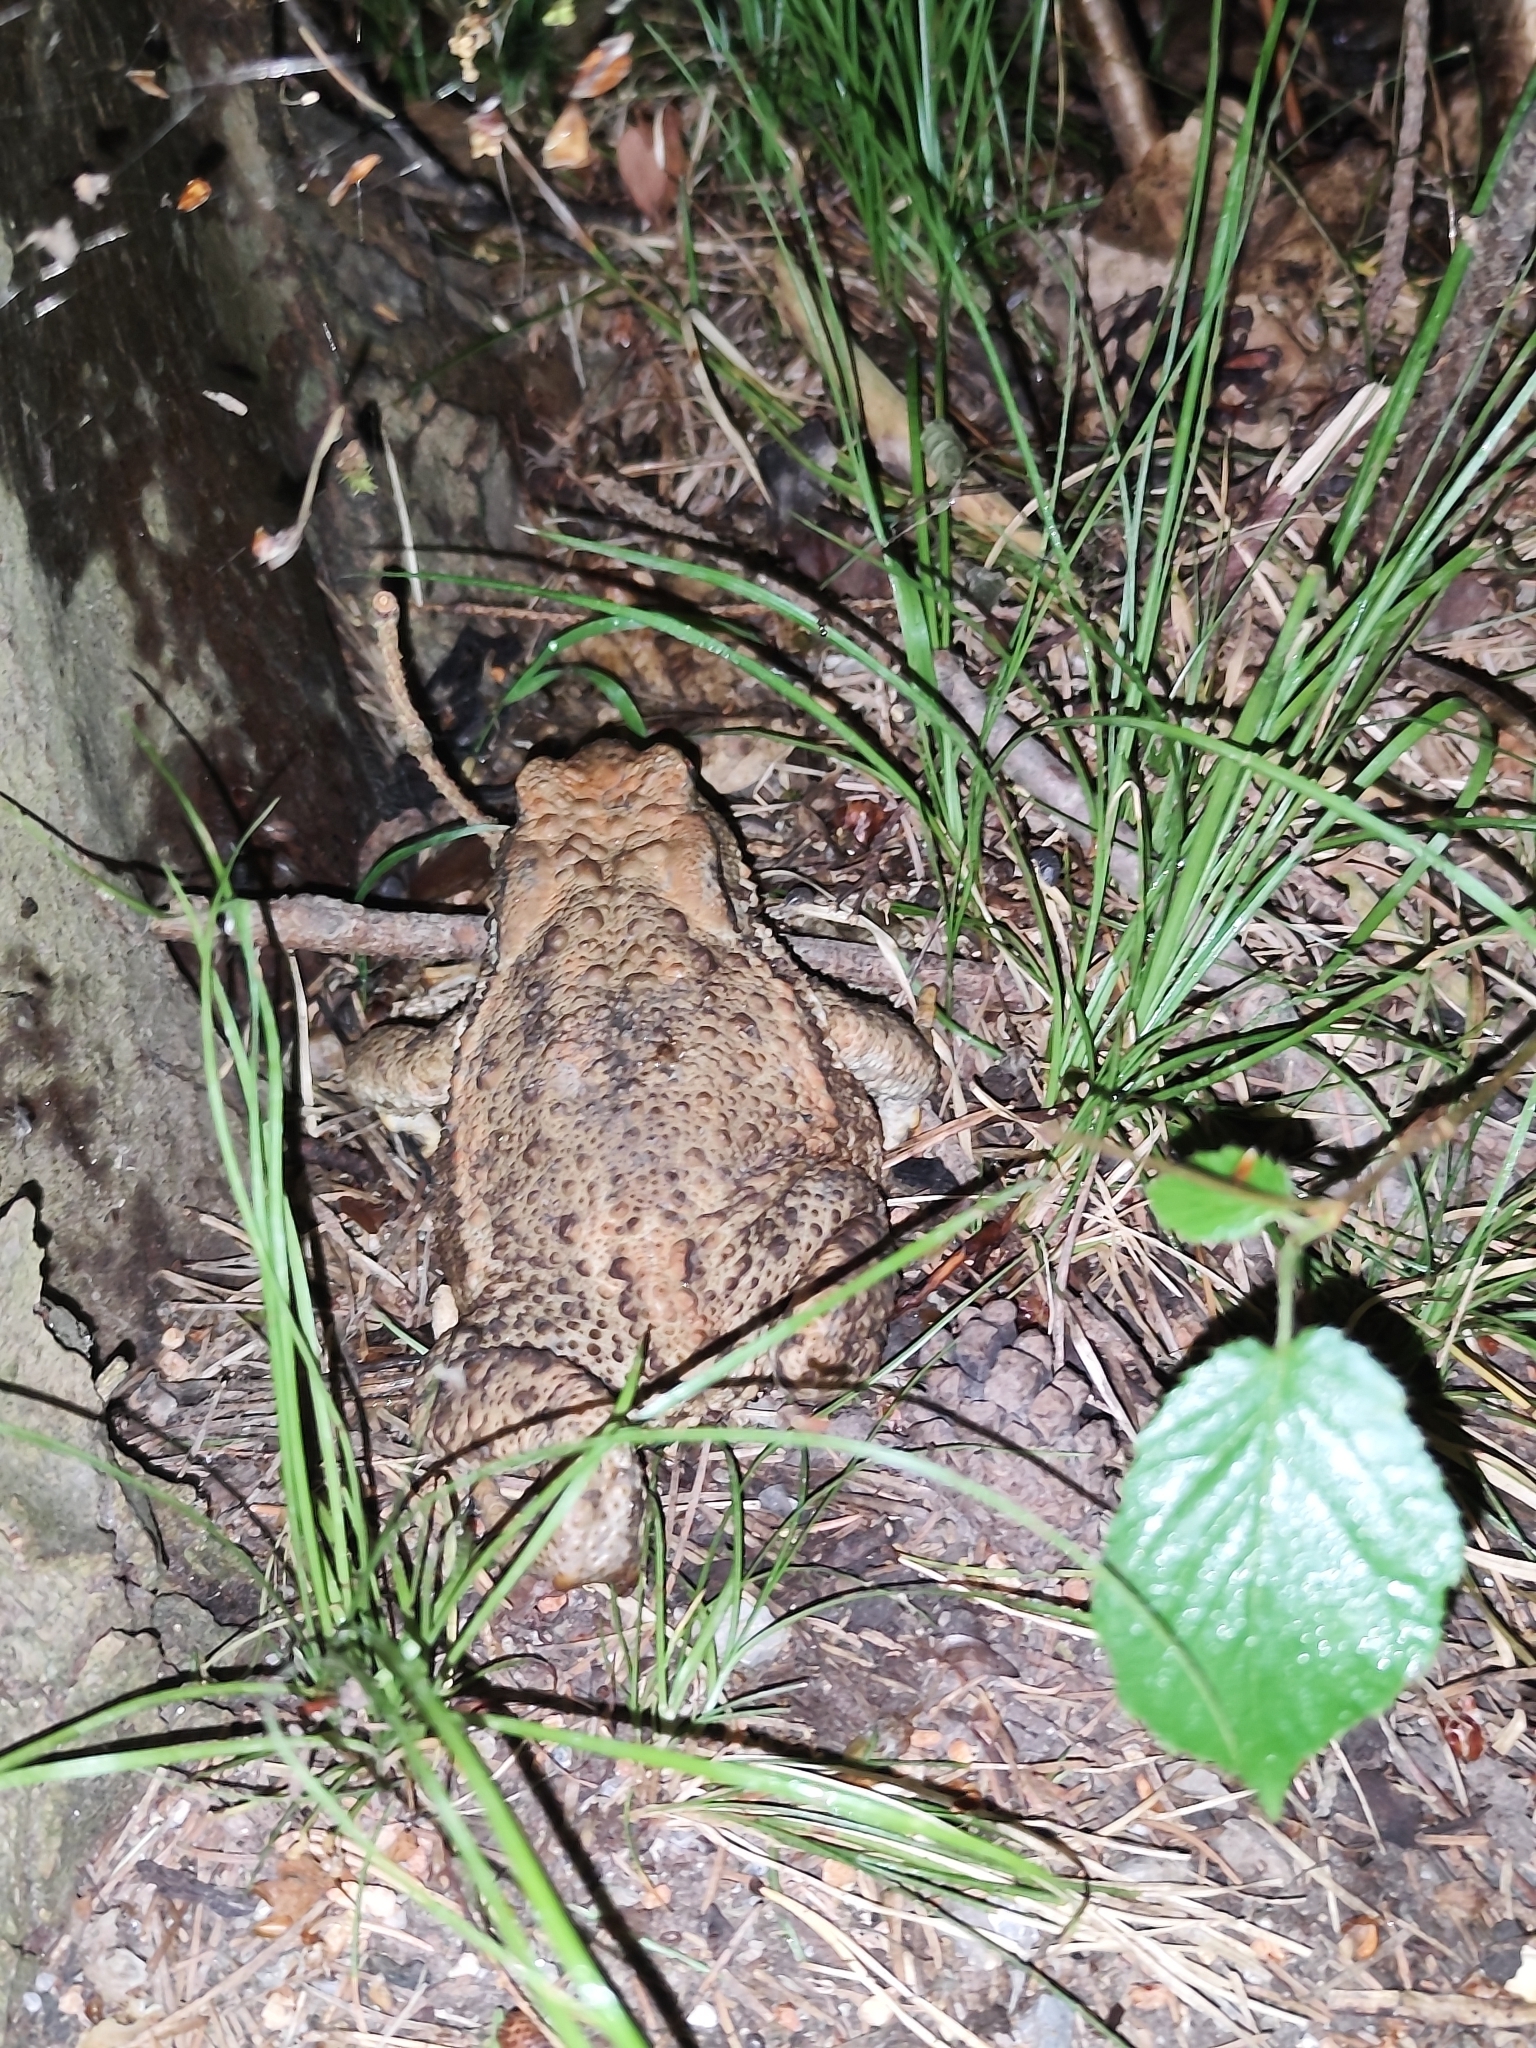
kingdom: Animalia
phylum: Chordata
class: Amphibia
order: Anura
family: Bufonidae
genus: Bufo
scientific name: Bufo bufo
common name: Common toad
